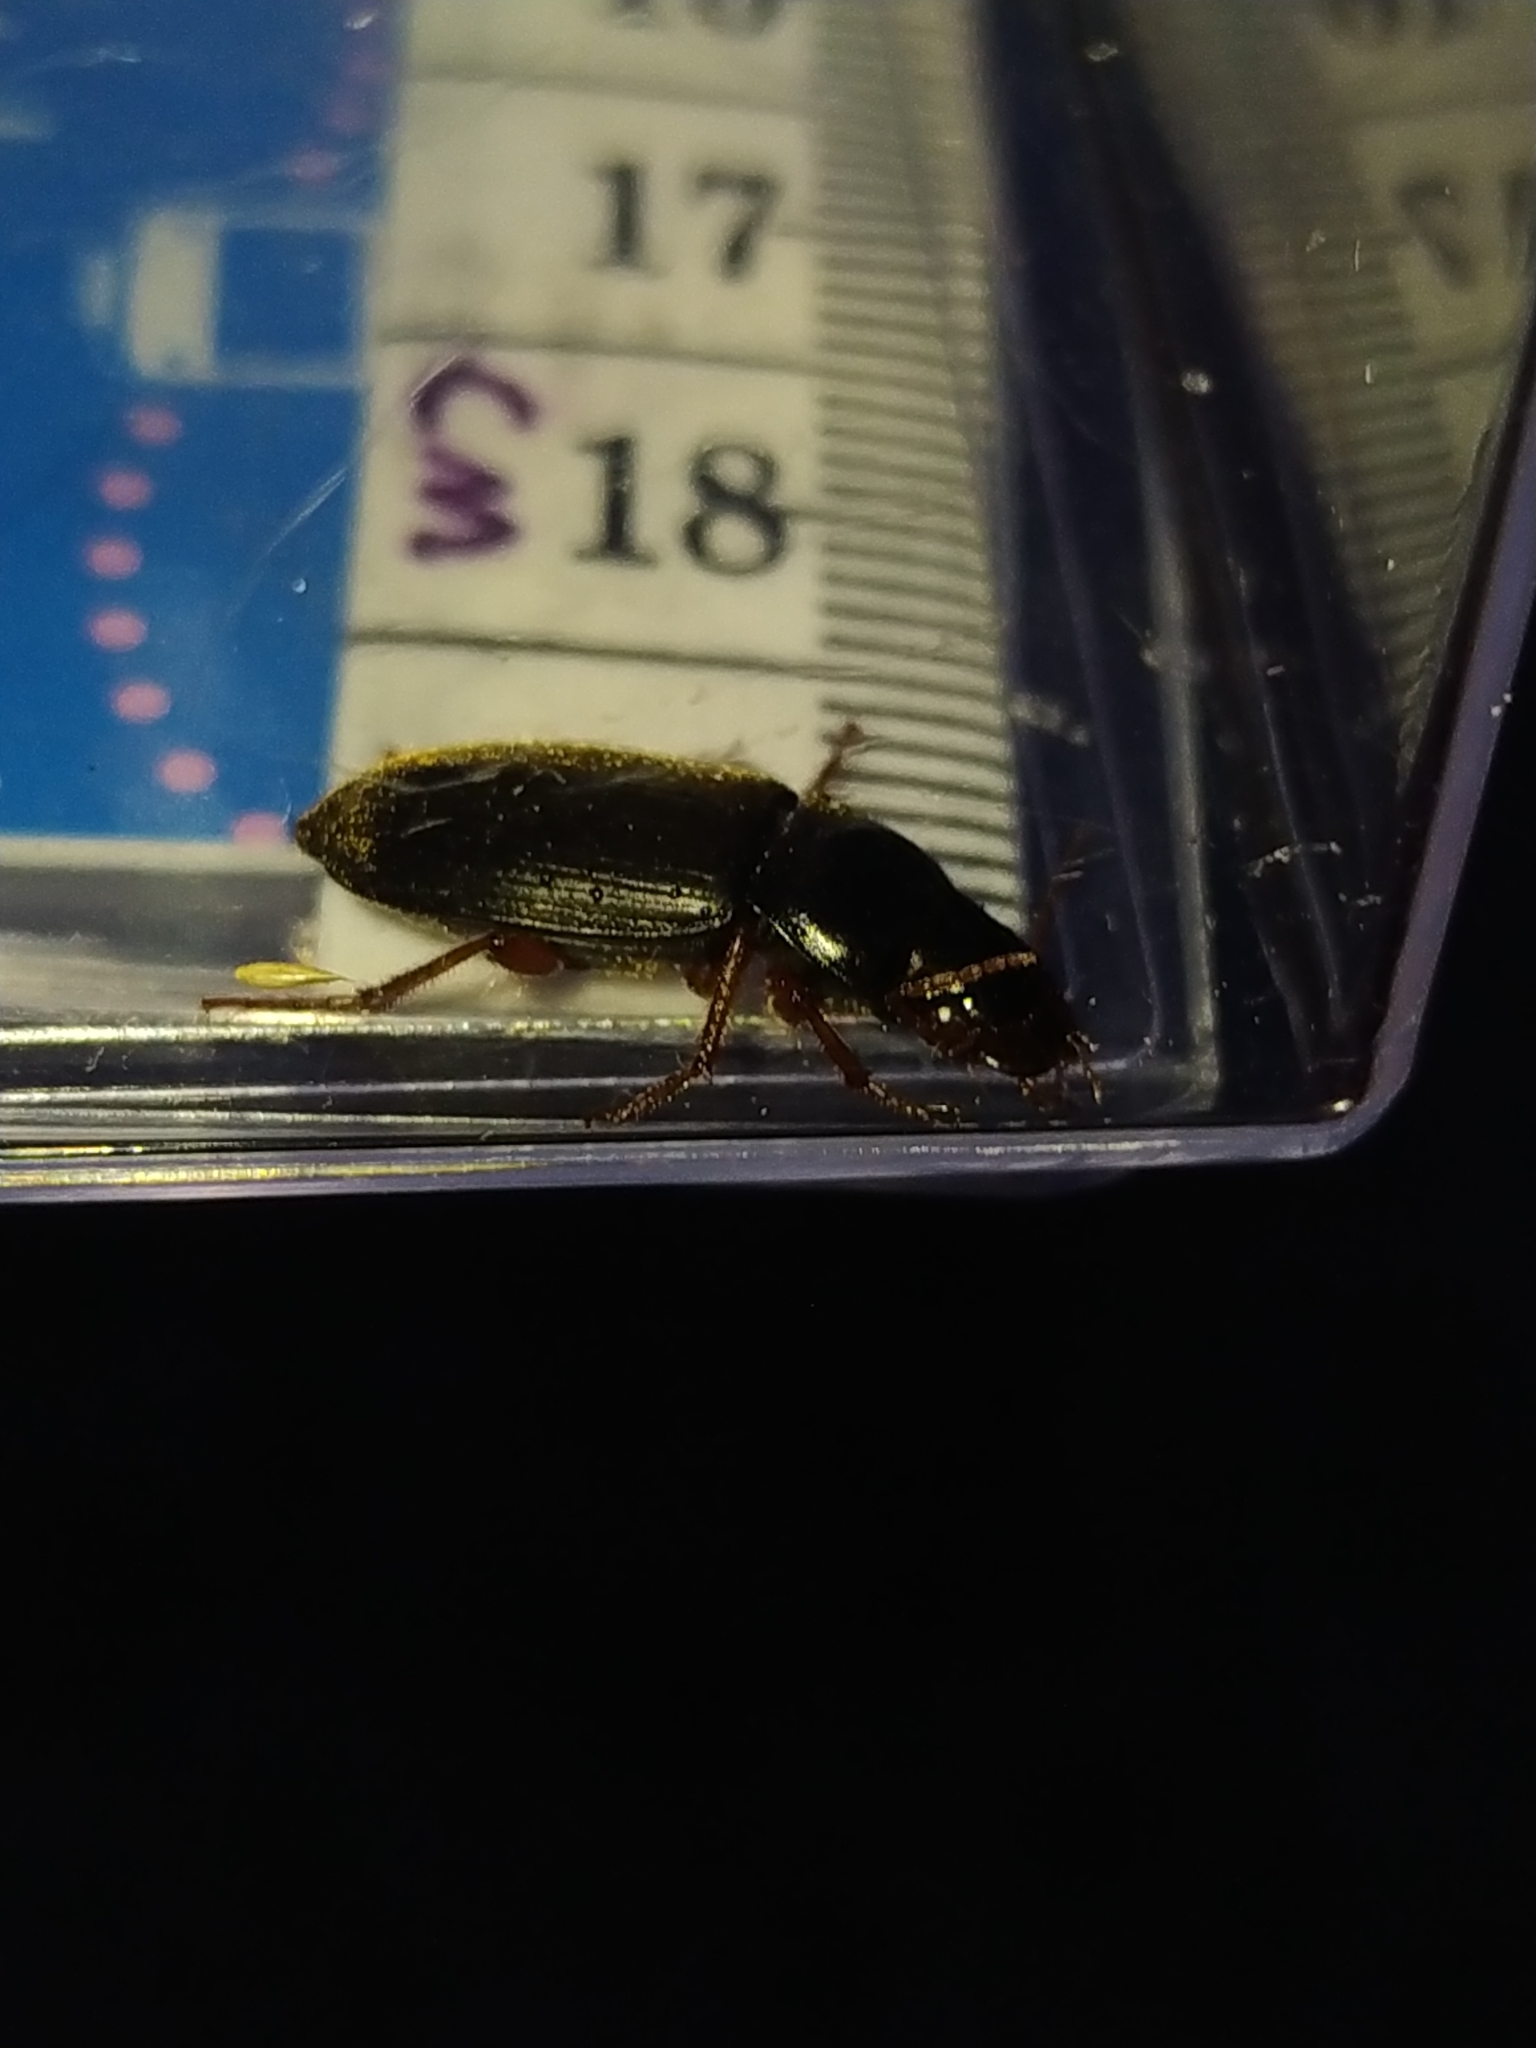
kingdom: Animalia
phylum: Arthropoda
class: Insecta
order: Coleoptera
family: Carabidae
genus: Harpalus
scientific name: Harpalus rufipes
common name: Strawberry harp ground beetle
